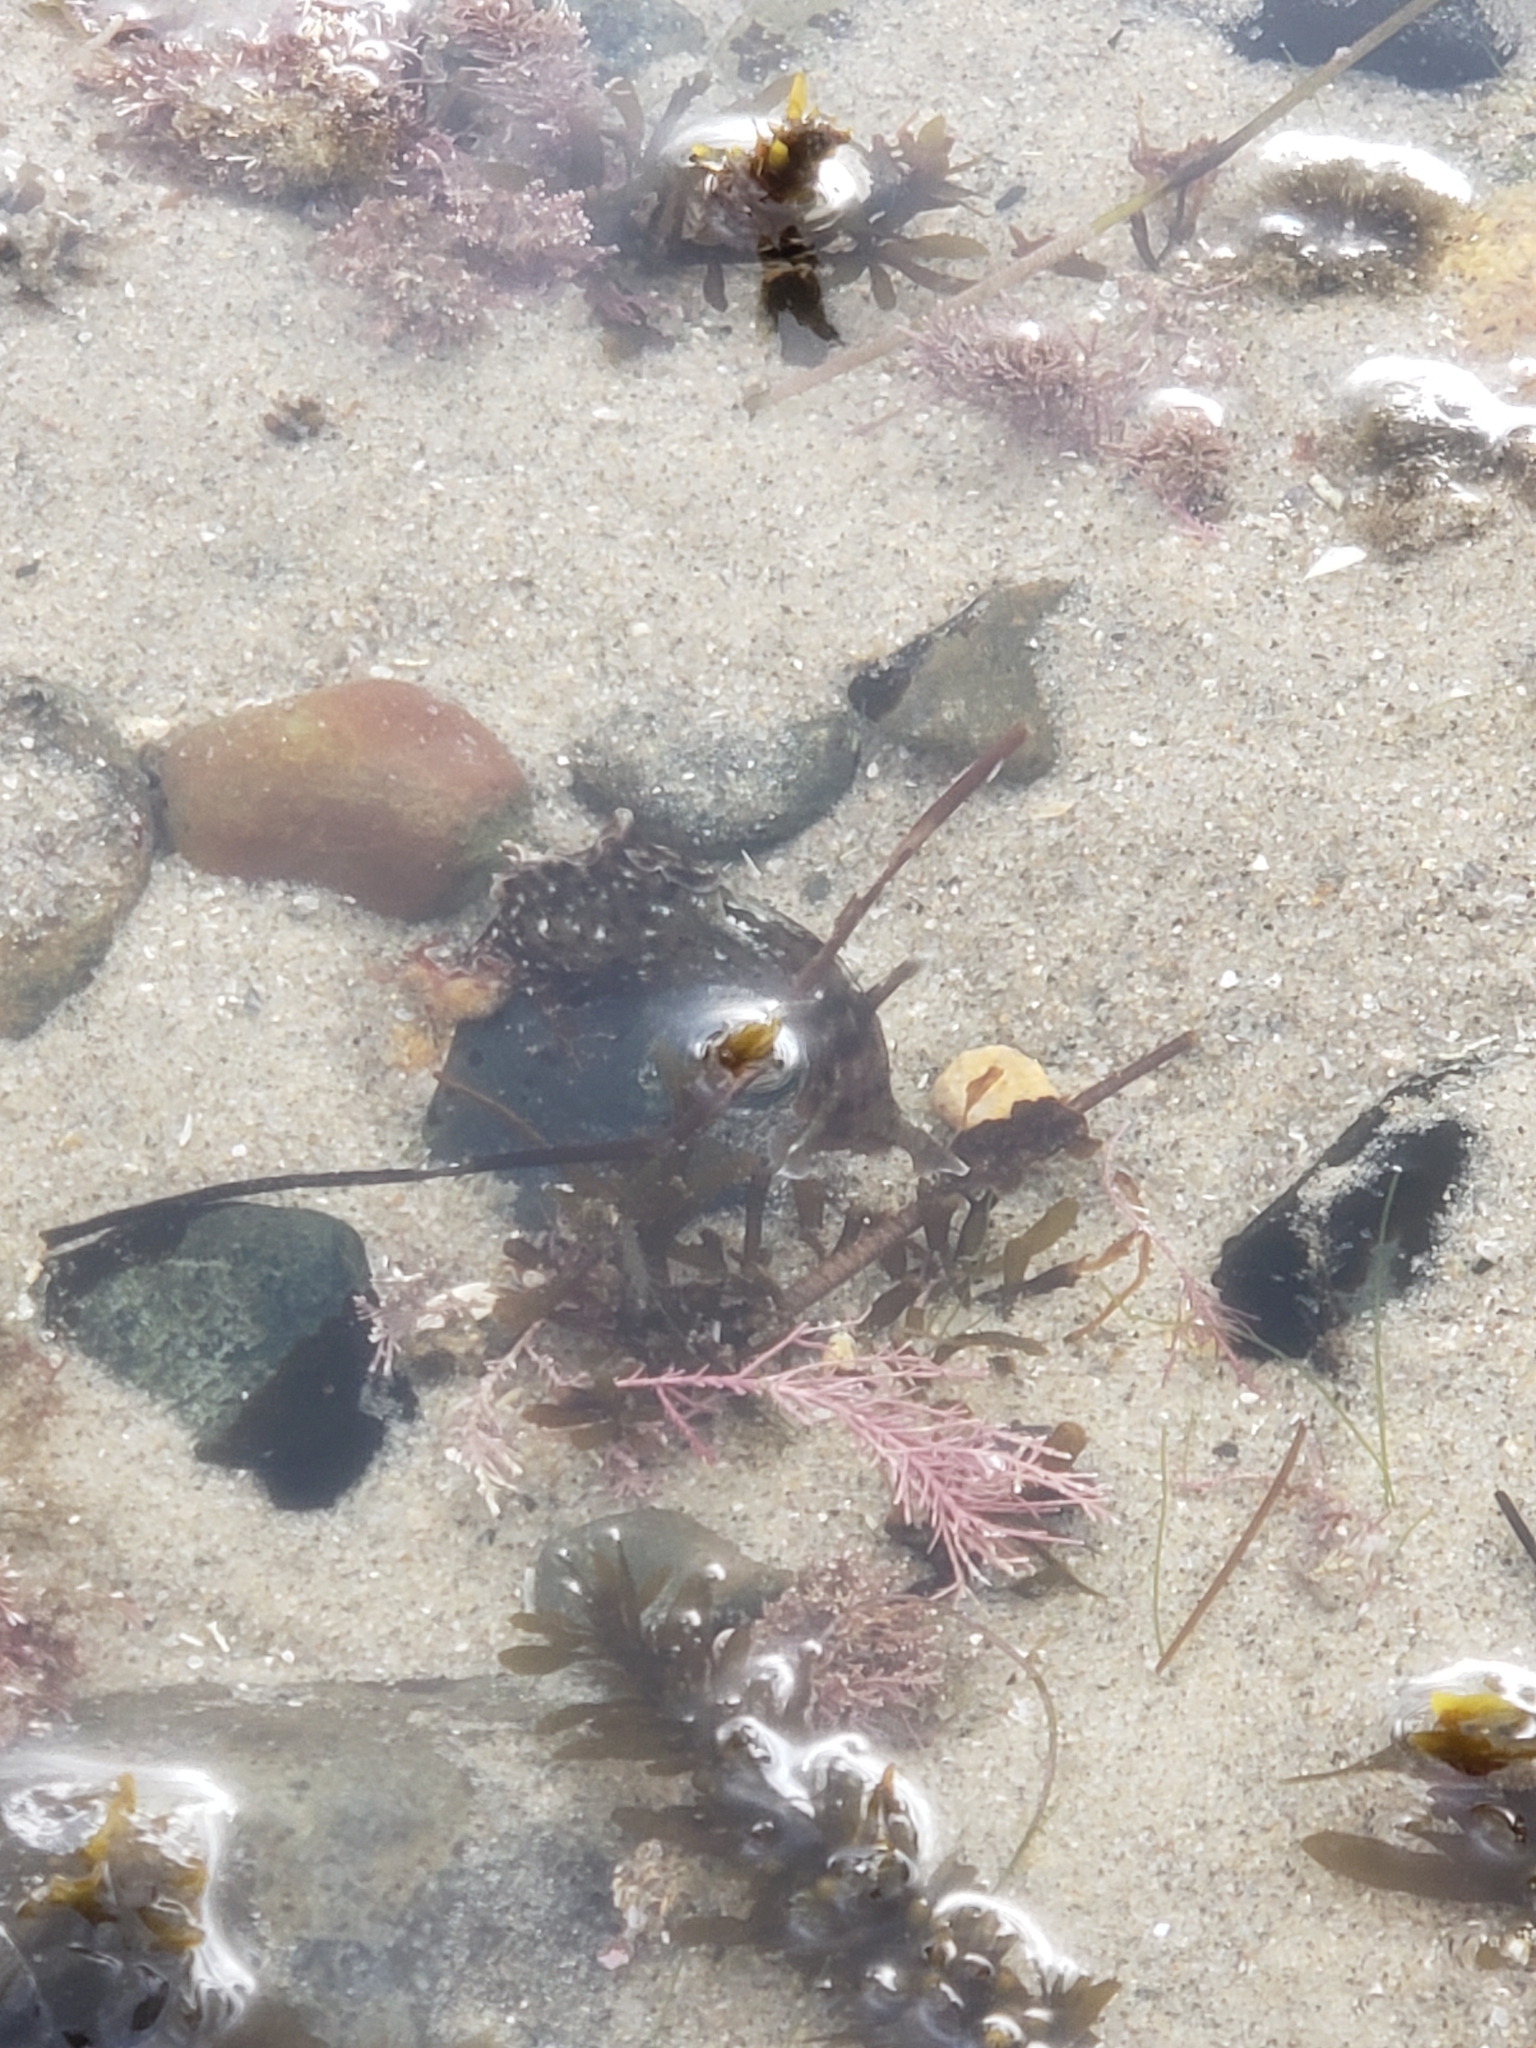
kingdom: Animalia
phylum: Mollusca
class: Gastropoda
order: Aplysiida
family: Aplysiidae
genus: Aplysia
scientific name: Aplysia californica
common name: California seahare
